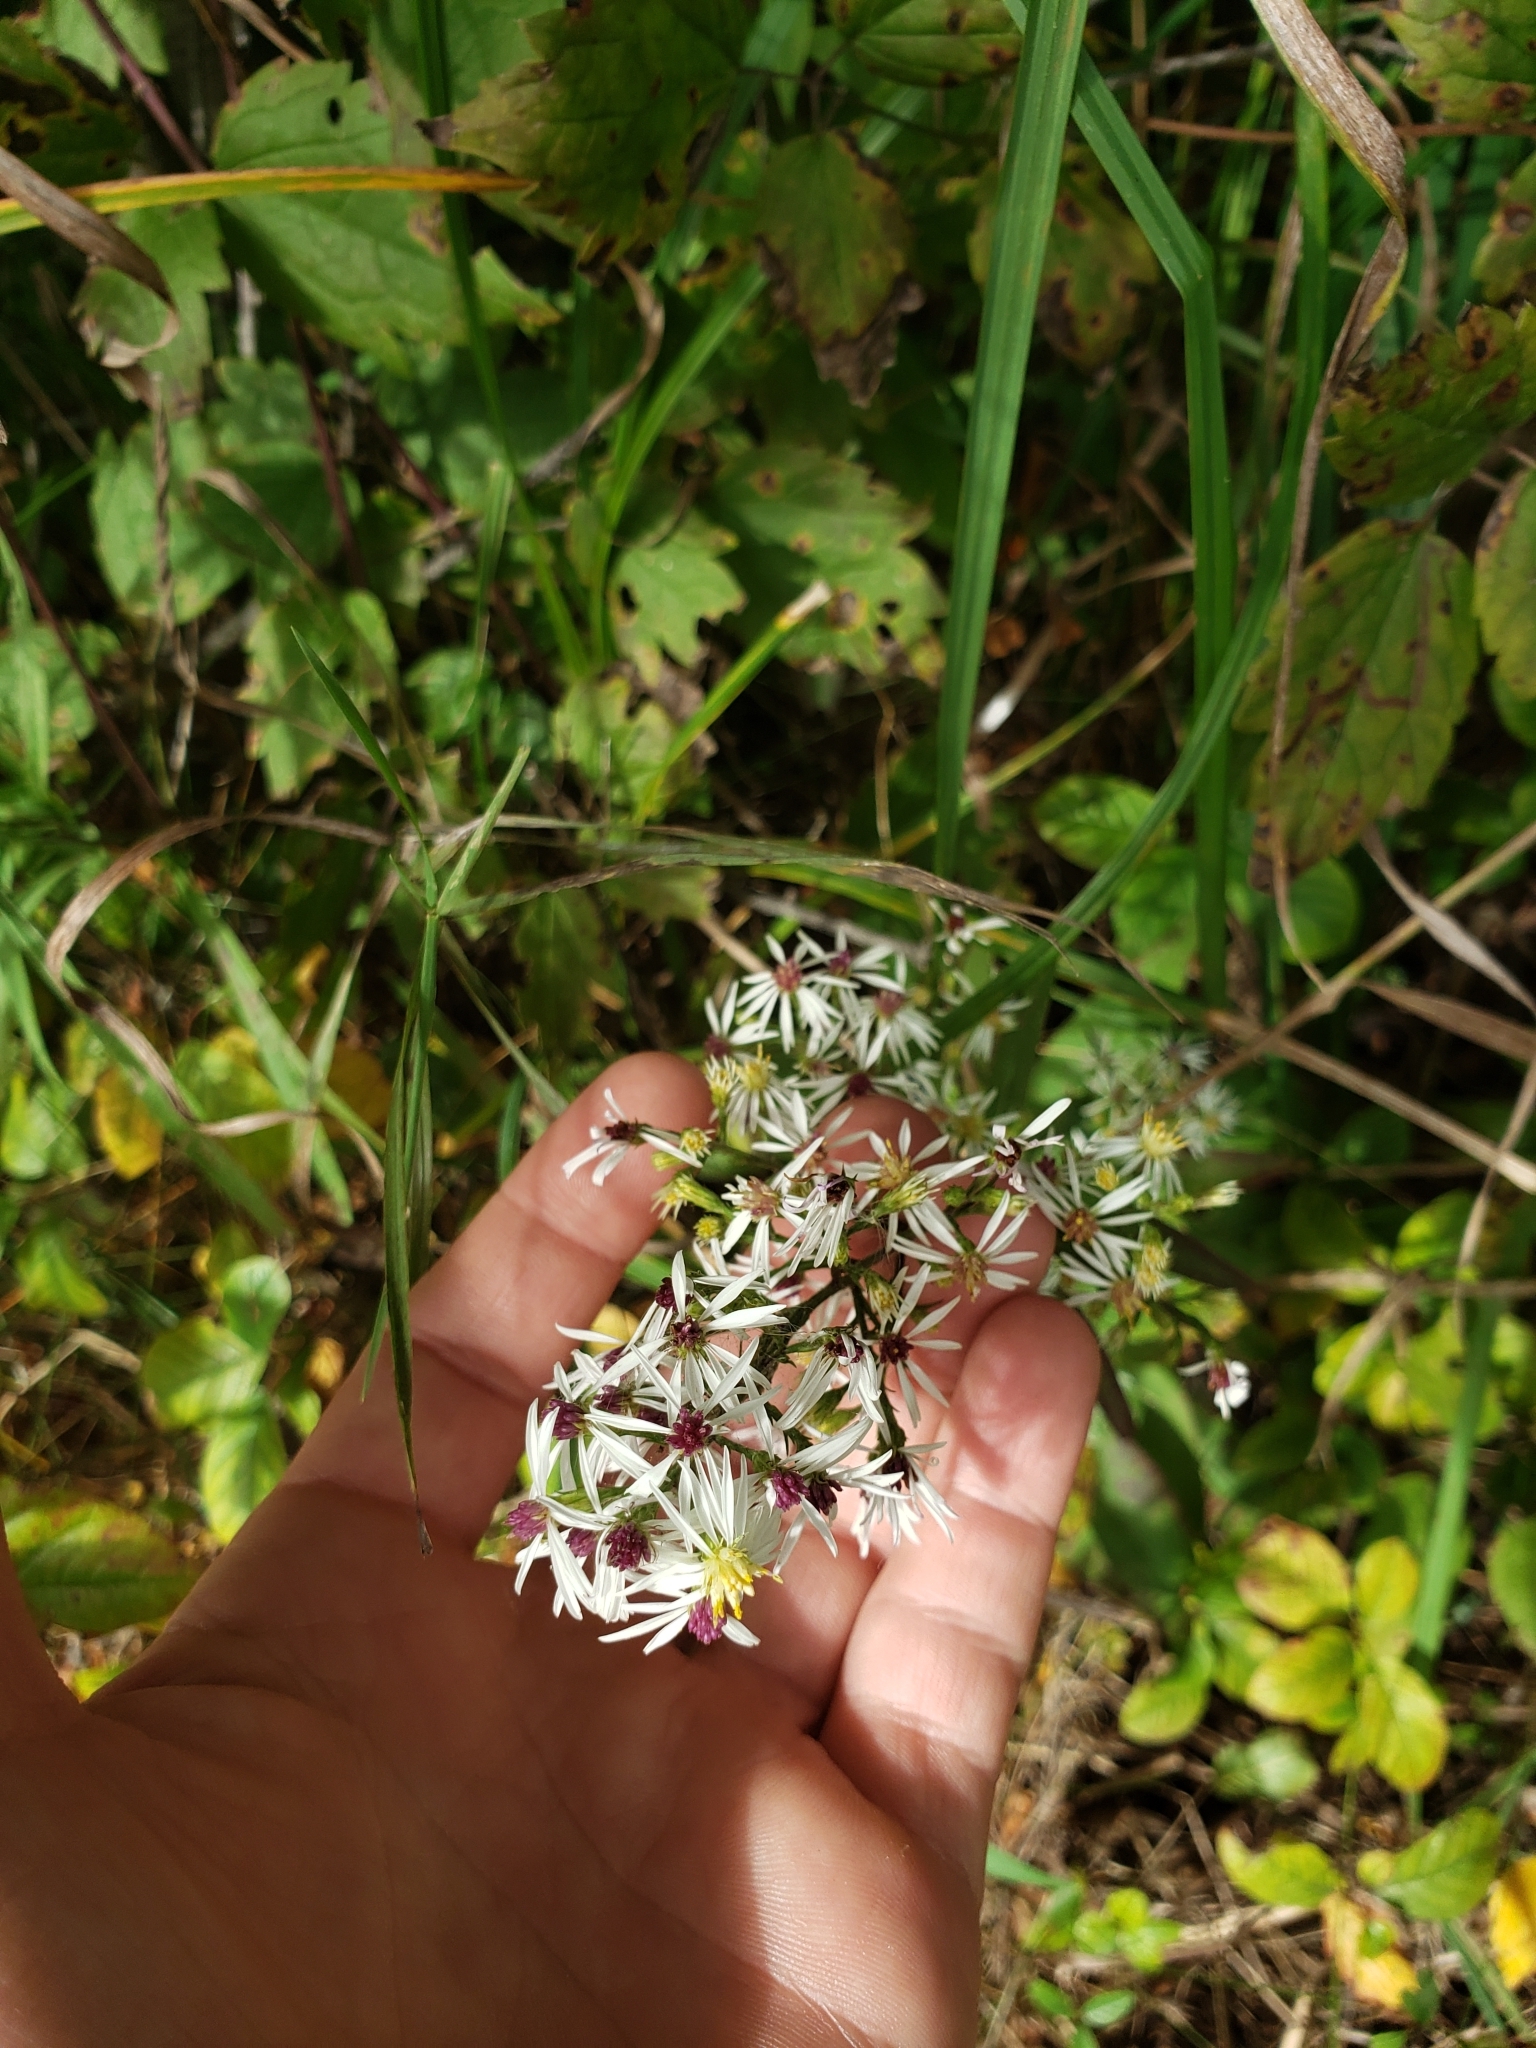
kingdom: Plantae
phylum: Tracheophyta
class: Magnoliopsida
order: Asterales
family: Asteraceae
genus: Symphyotrichum
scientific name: Symphyotrichum urophyllum
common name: Arrow-leaved aster
